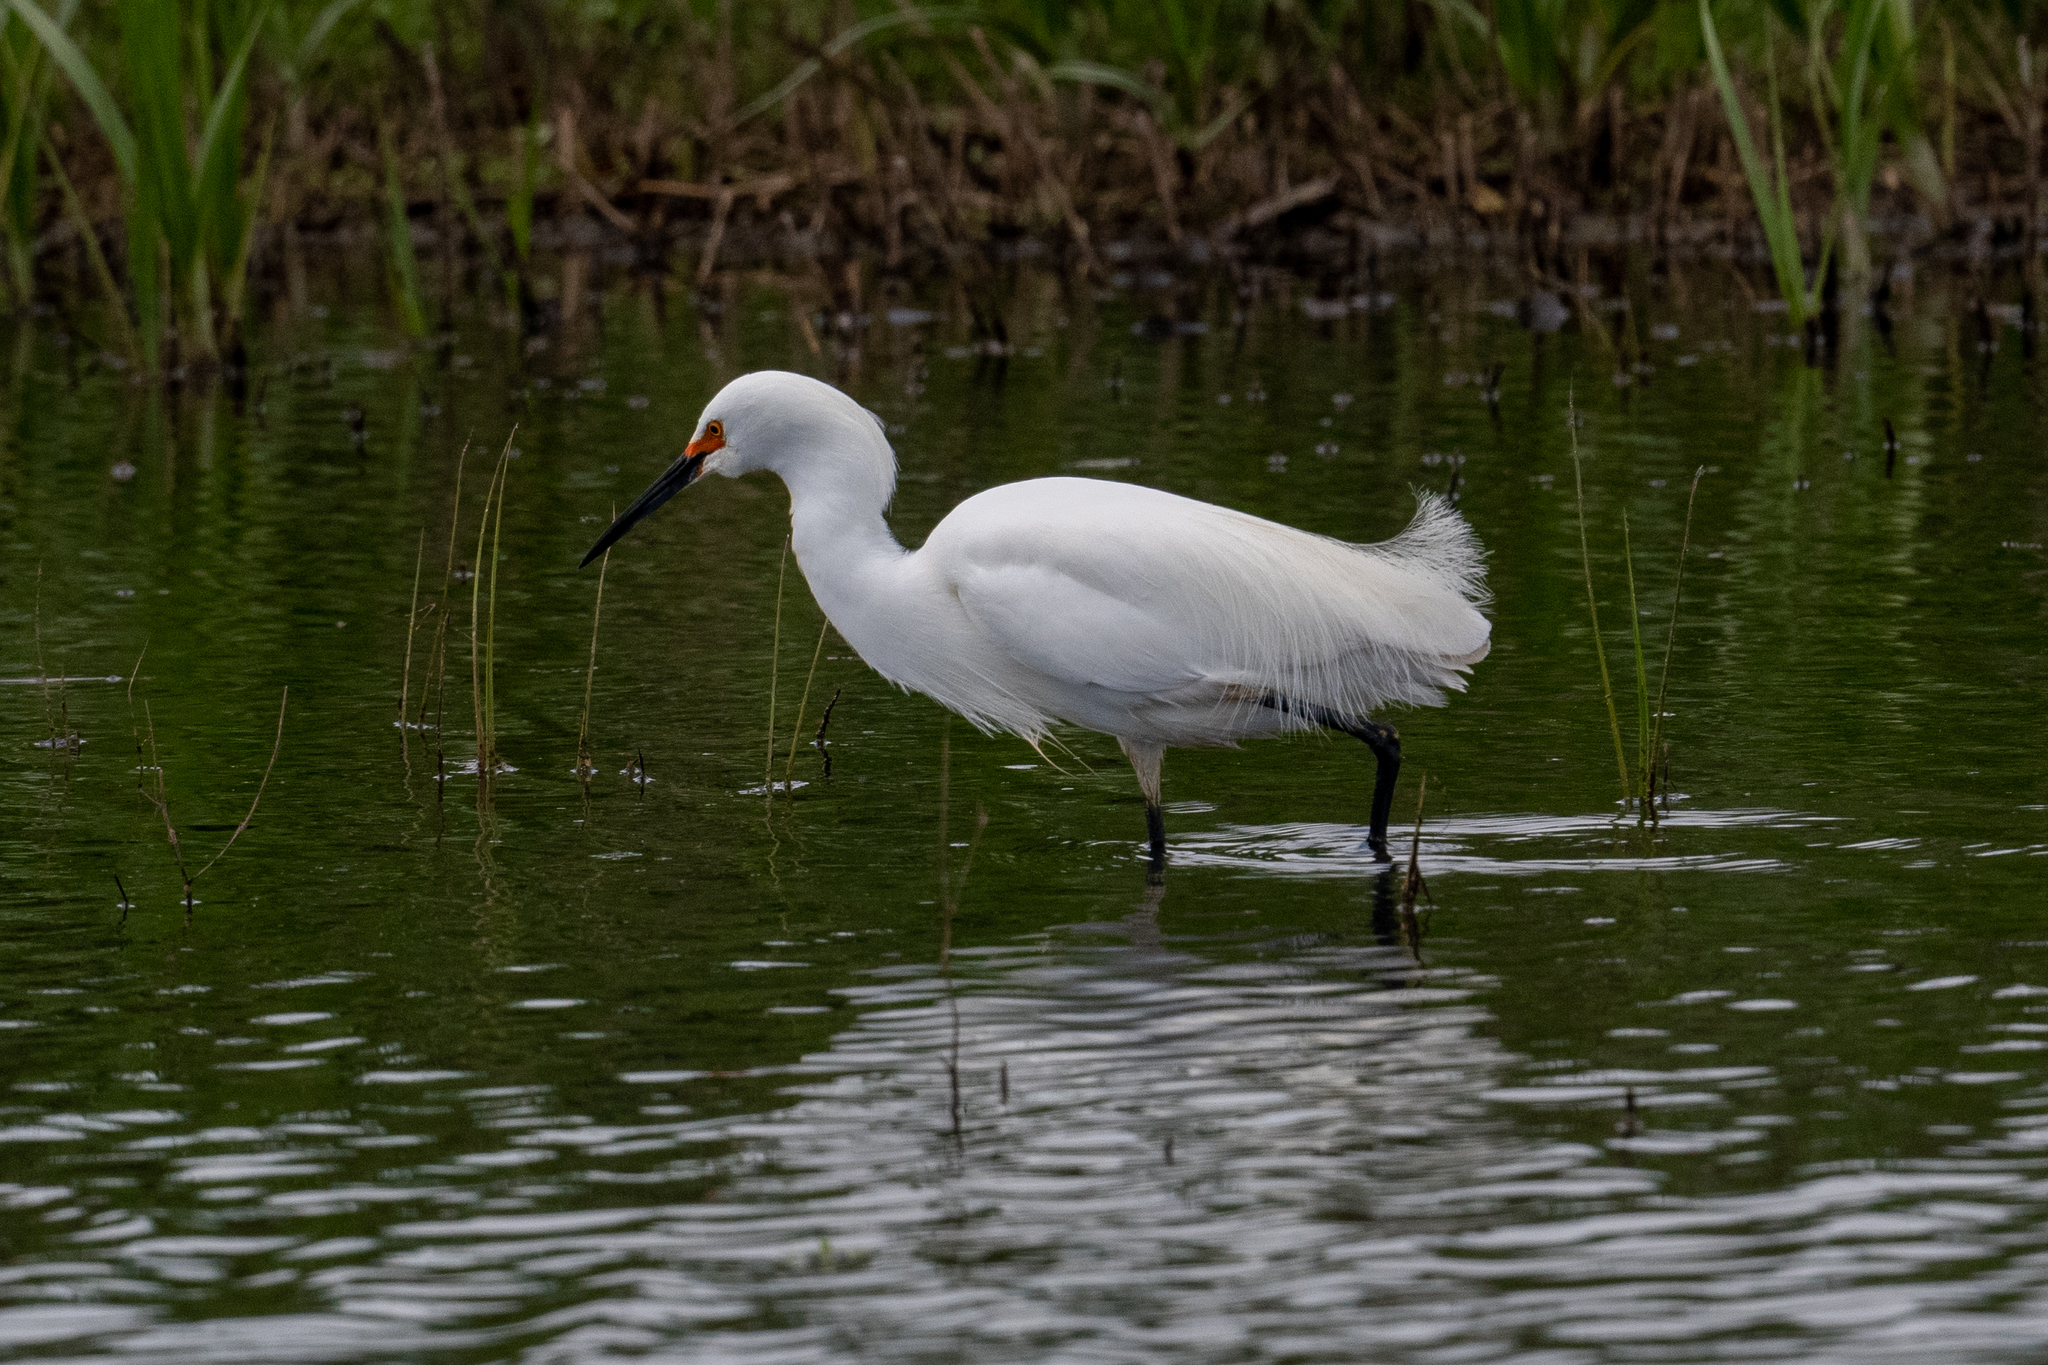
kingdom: Animalia
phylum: Chordata
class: Aves
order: Pelecaniformes
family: Ardeidae
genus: Egretta
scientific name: Egretta thula
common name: Snowy egret
